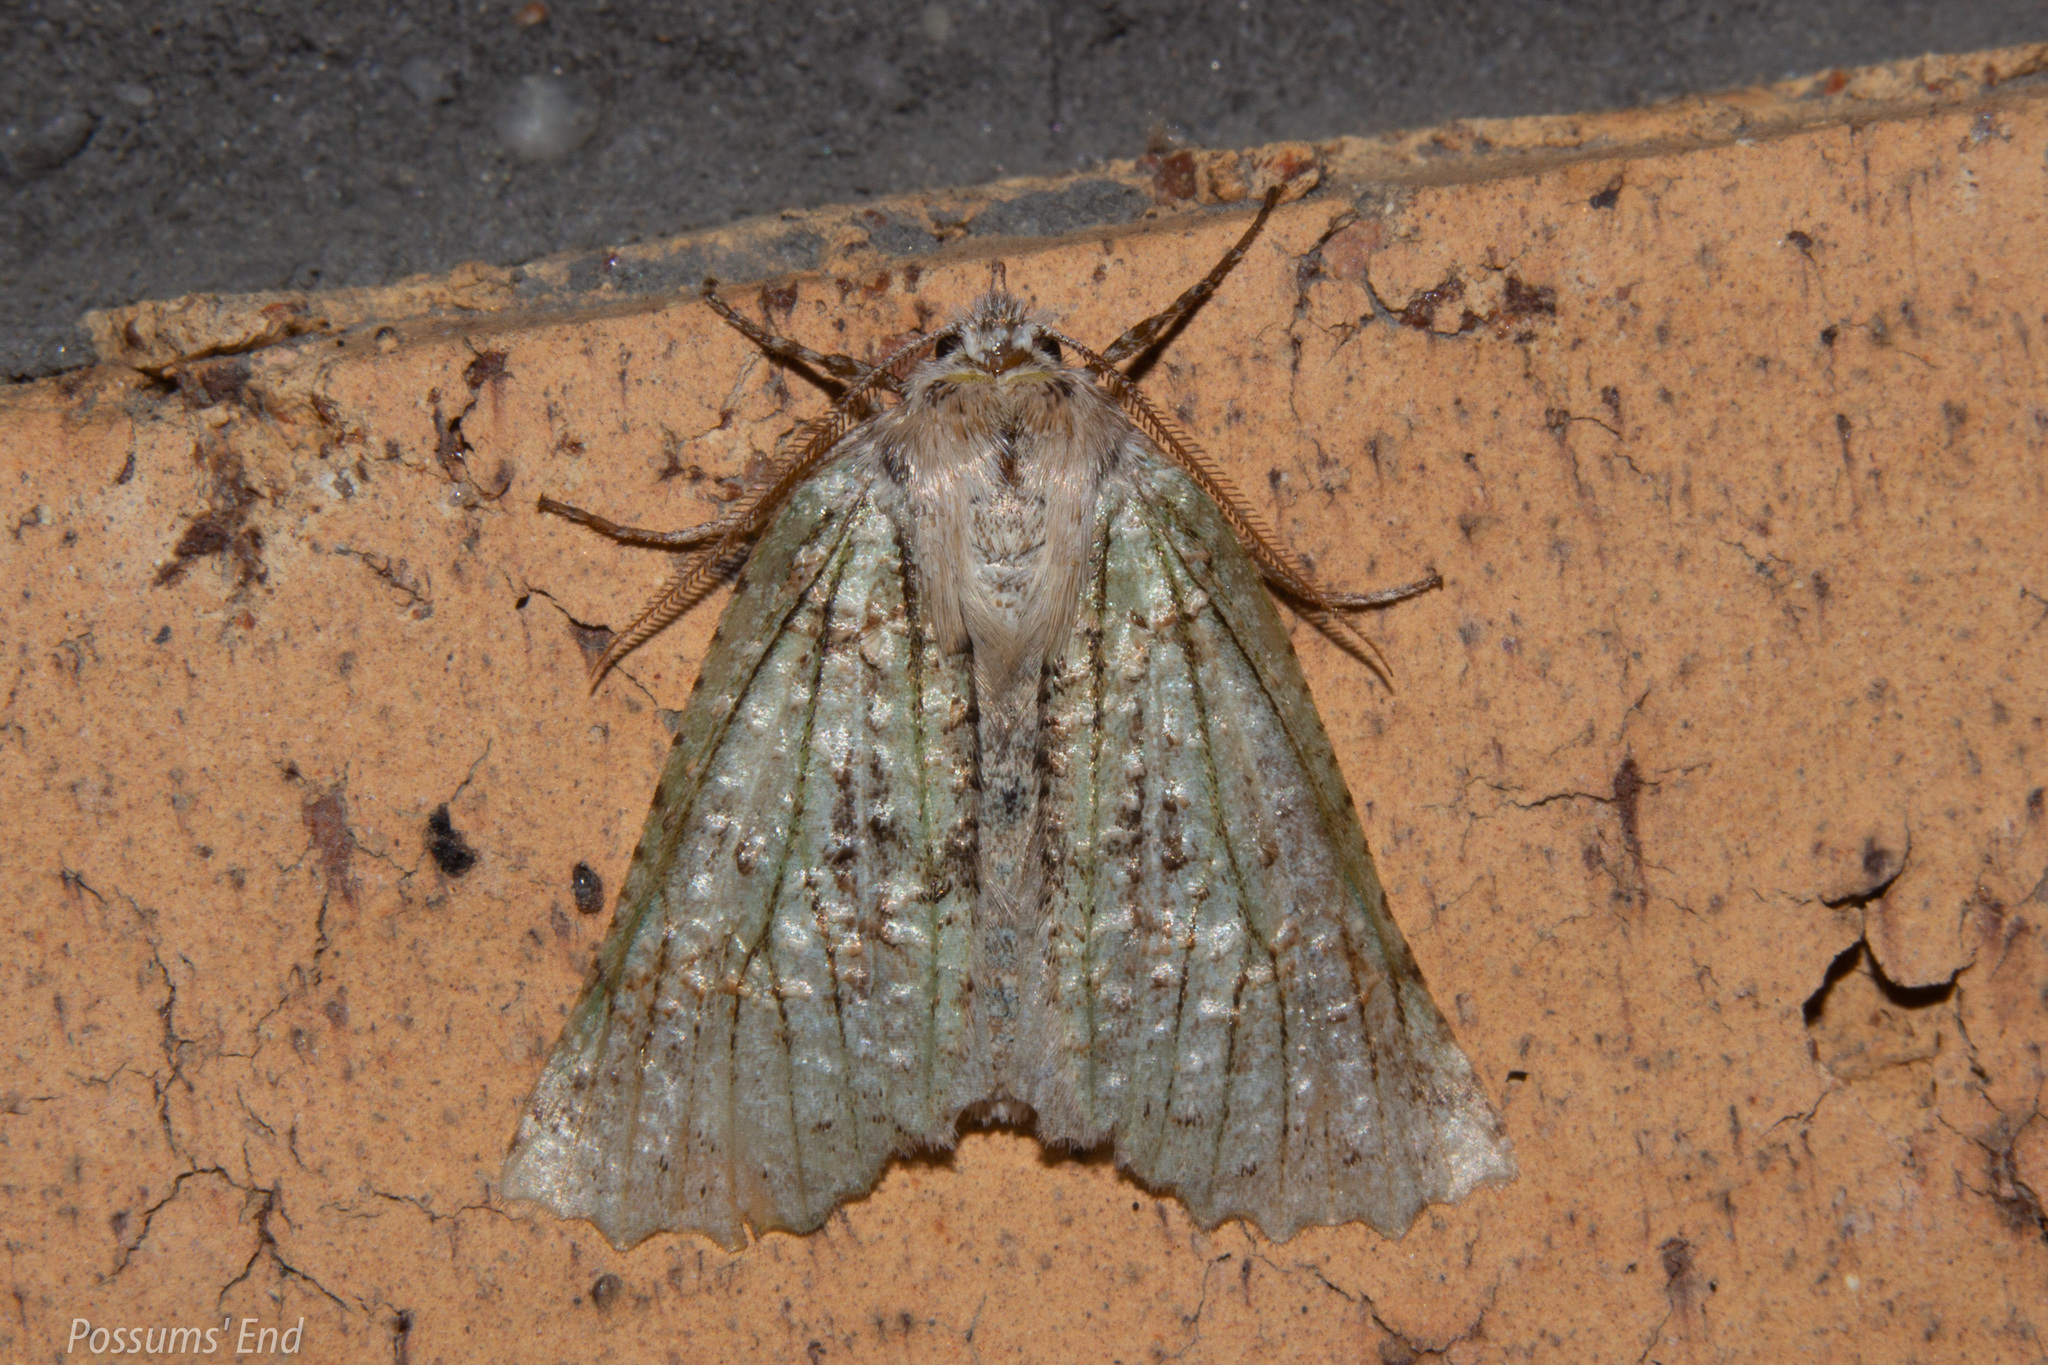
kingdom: Animalia
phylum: Arthropoda
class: Insecta
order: Lepidoptera
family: Geometridae
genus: Declana
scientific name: Declana floccosa
